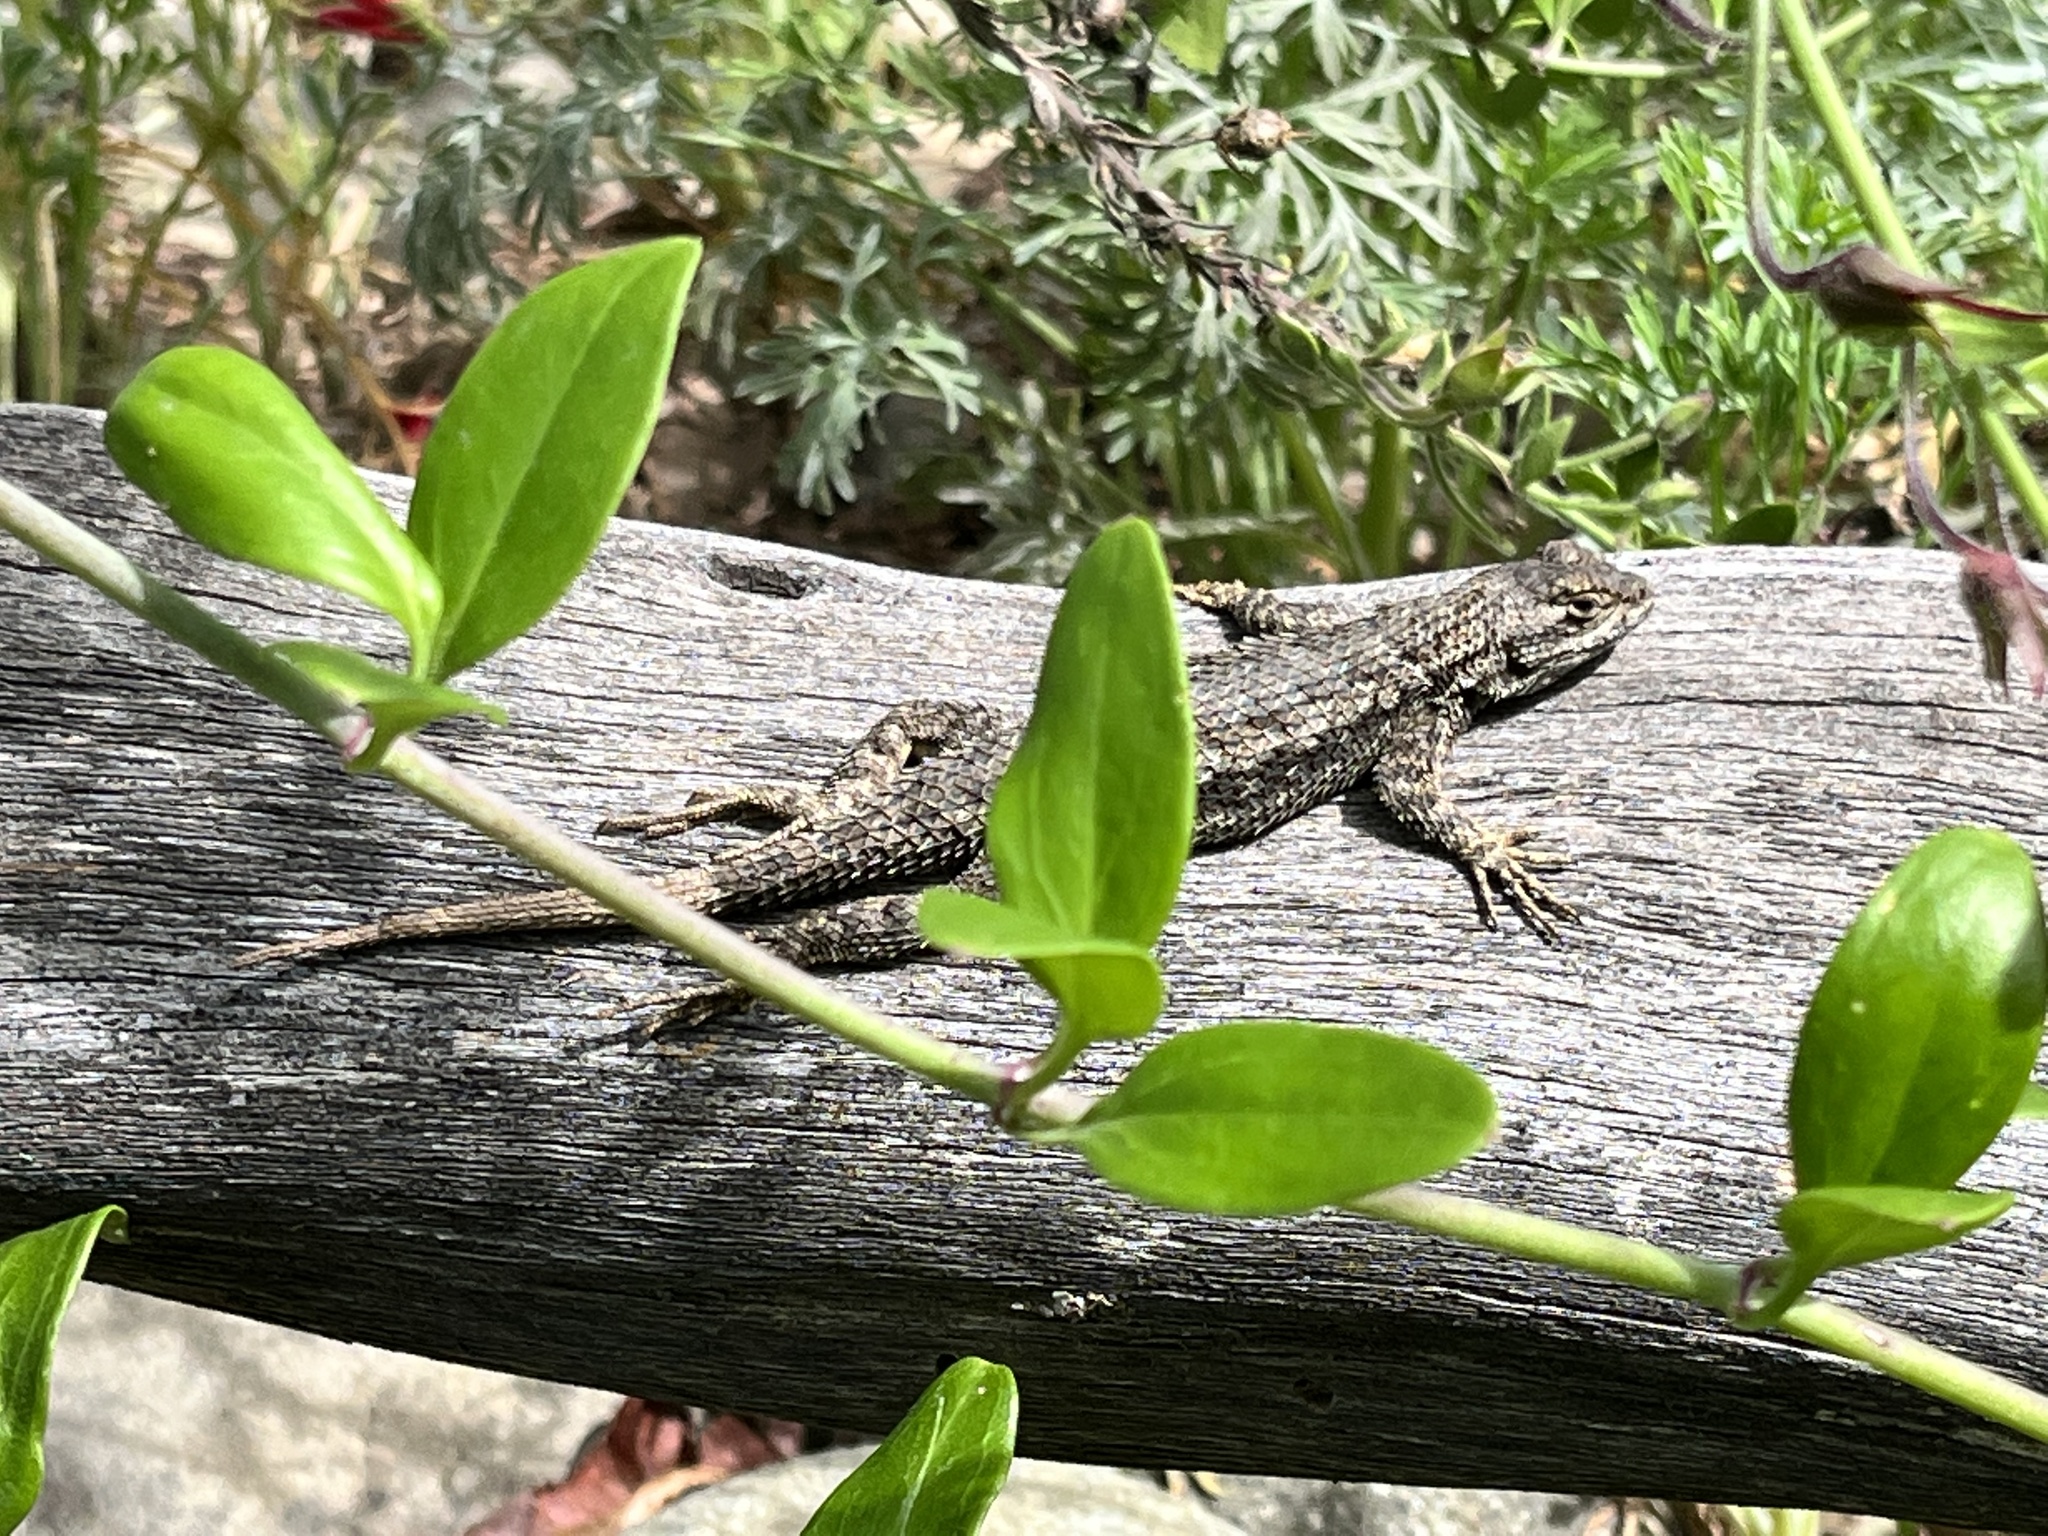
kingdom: Animalia
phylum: Chordata
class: Squamata
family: Phrynosomatidae
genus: Sceloporus
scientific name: Sceloporus occidentalis
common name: Western fence lizard
